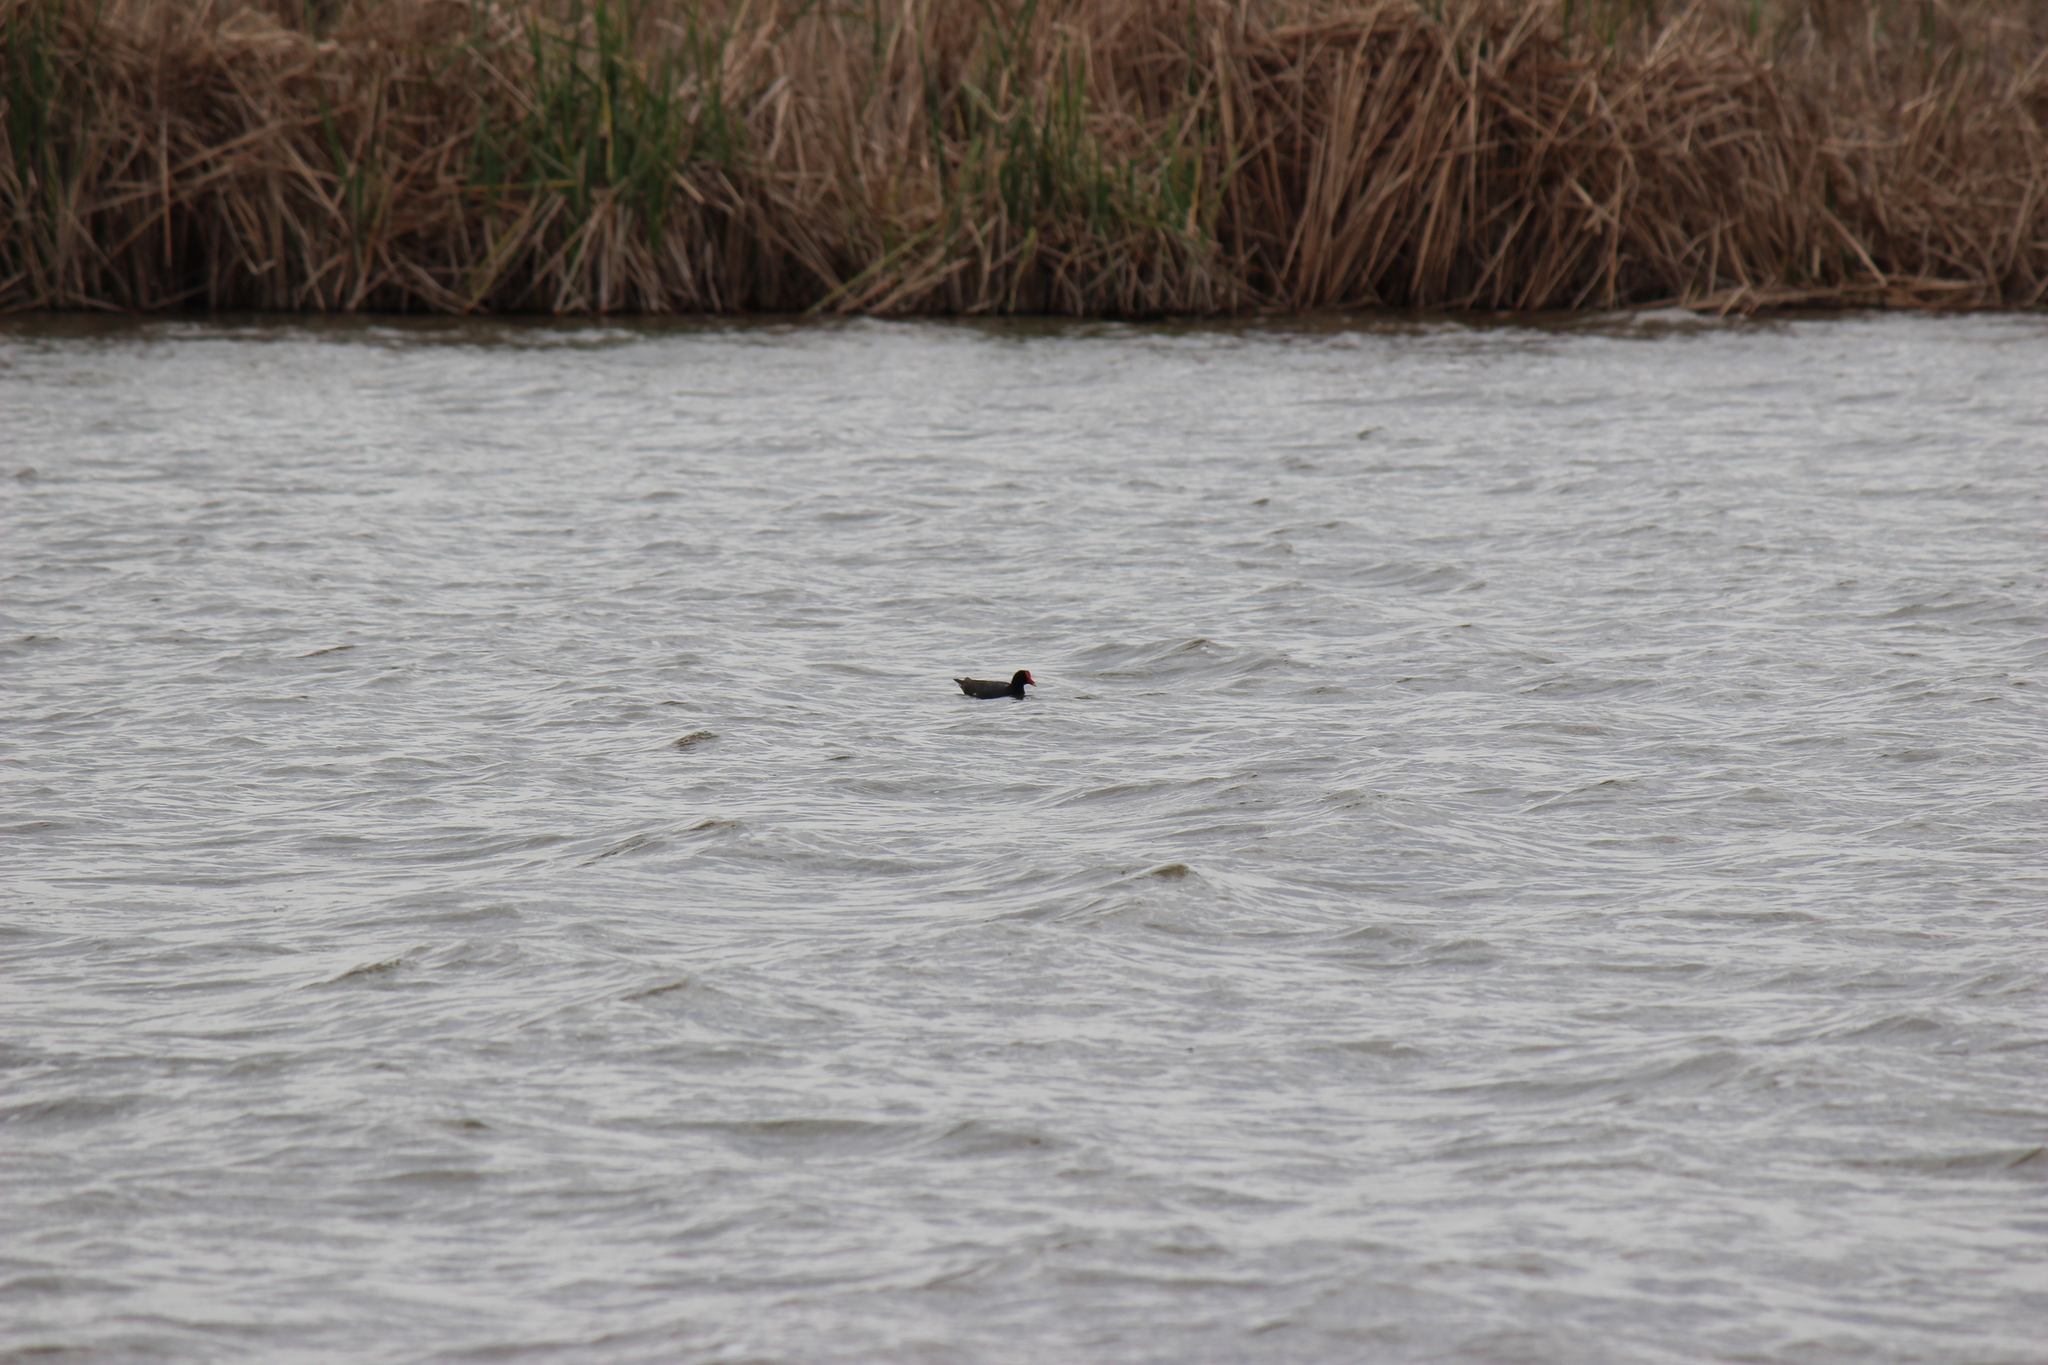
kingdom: Animalia
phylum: Chordata
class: Aves
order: Gruiformes
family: Rallidae
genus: Gallinula
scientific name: Gallinula chloropus
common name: Common moorhen
